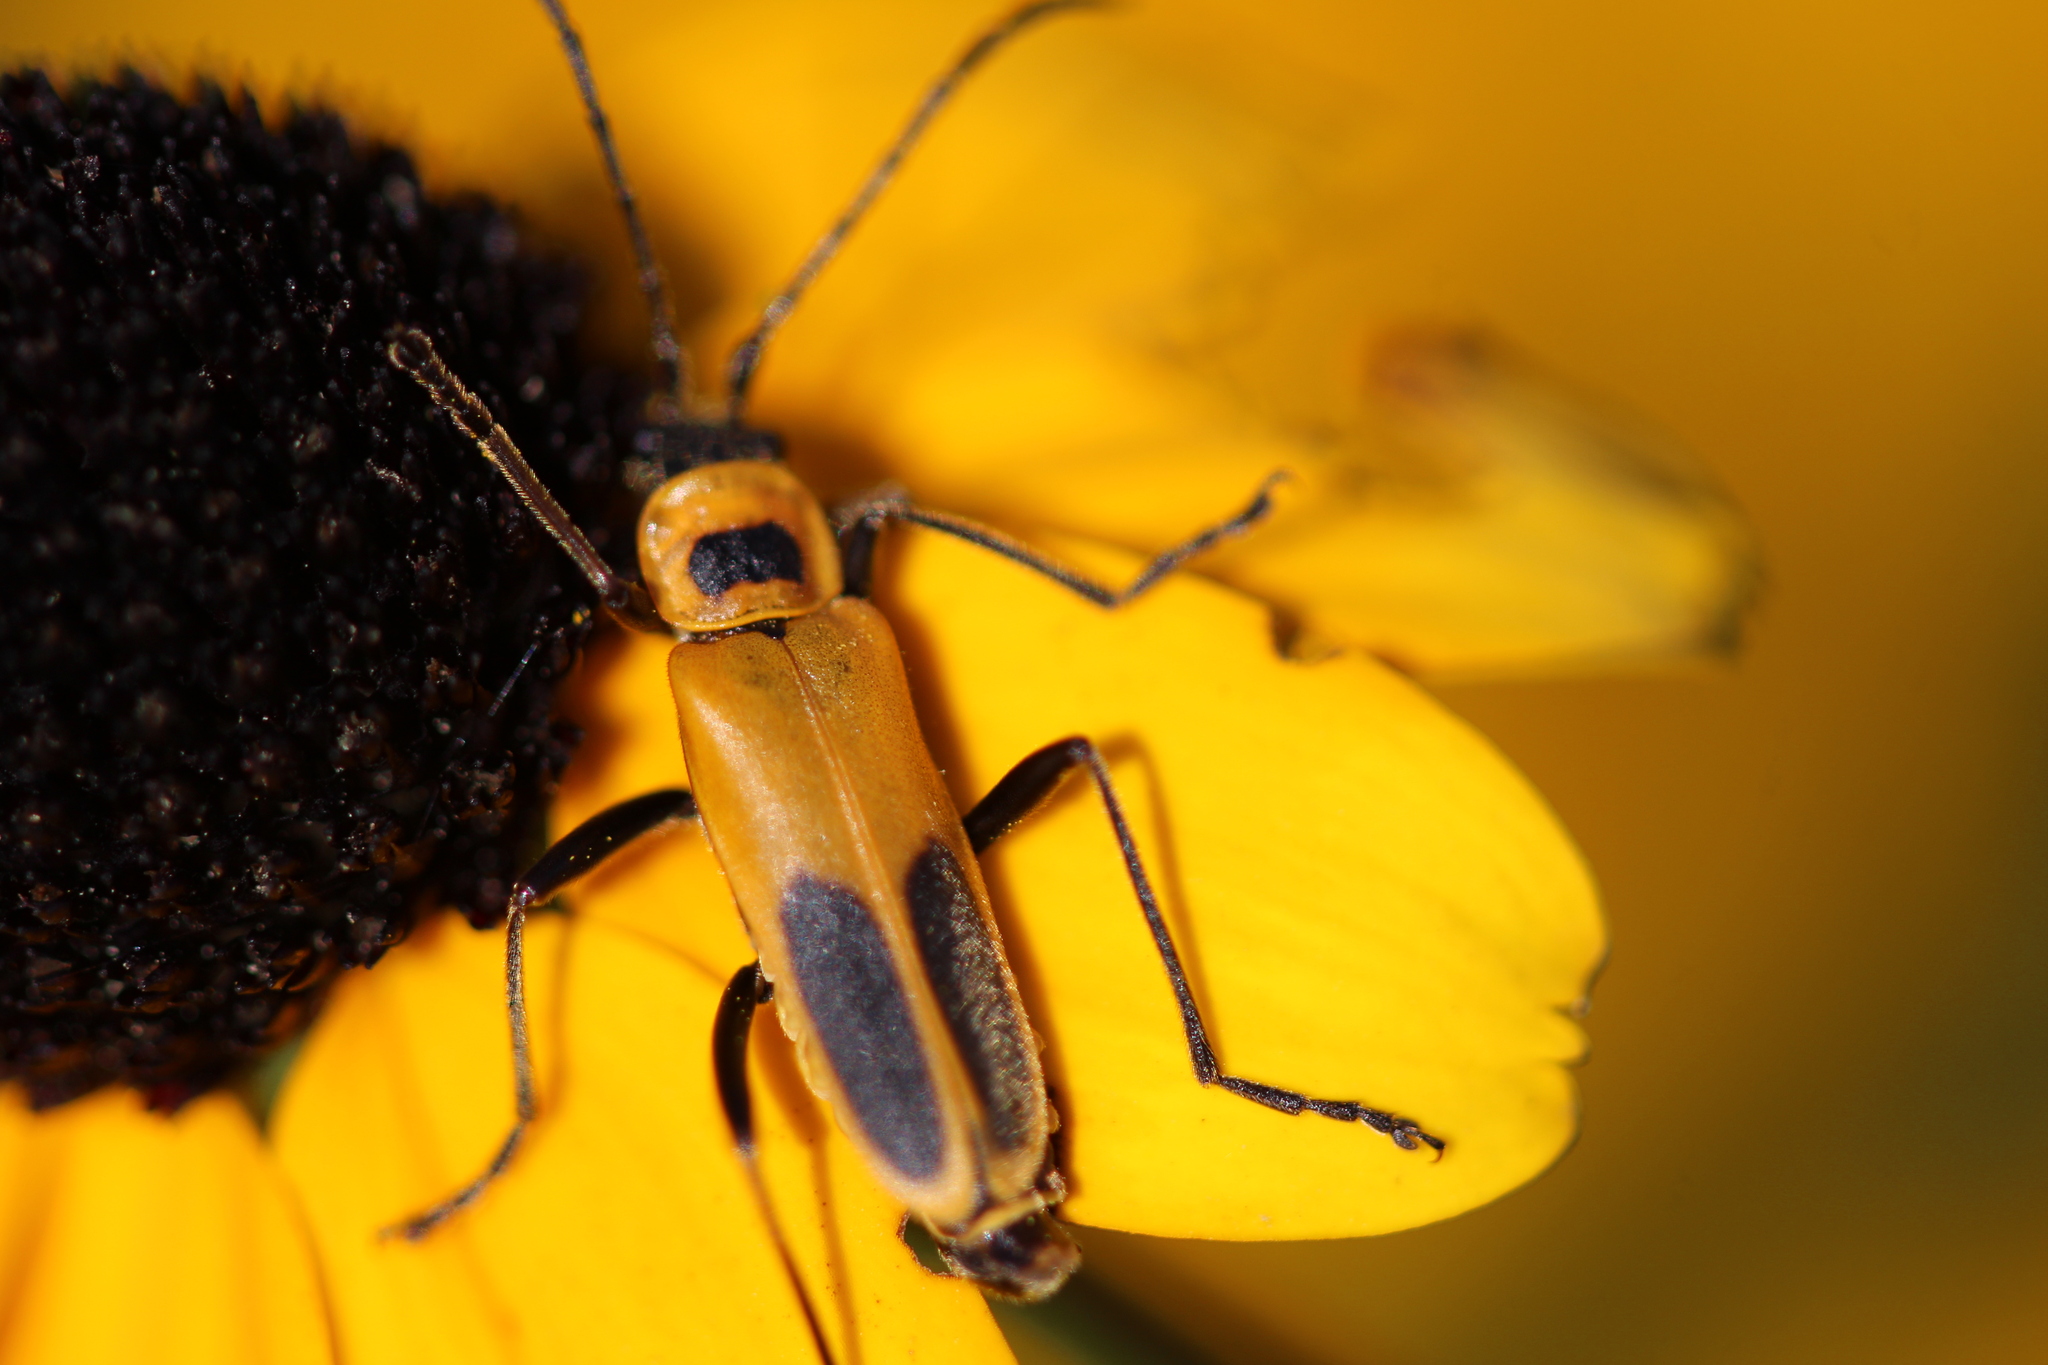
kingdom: Animalia
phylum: Arthropoda
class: Insecta
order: Coleoptera
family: Cantharidae
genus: Chauliognathus
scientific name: Chauliognathus pensylvanicus
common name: Goldenrod soldier beetle
